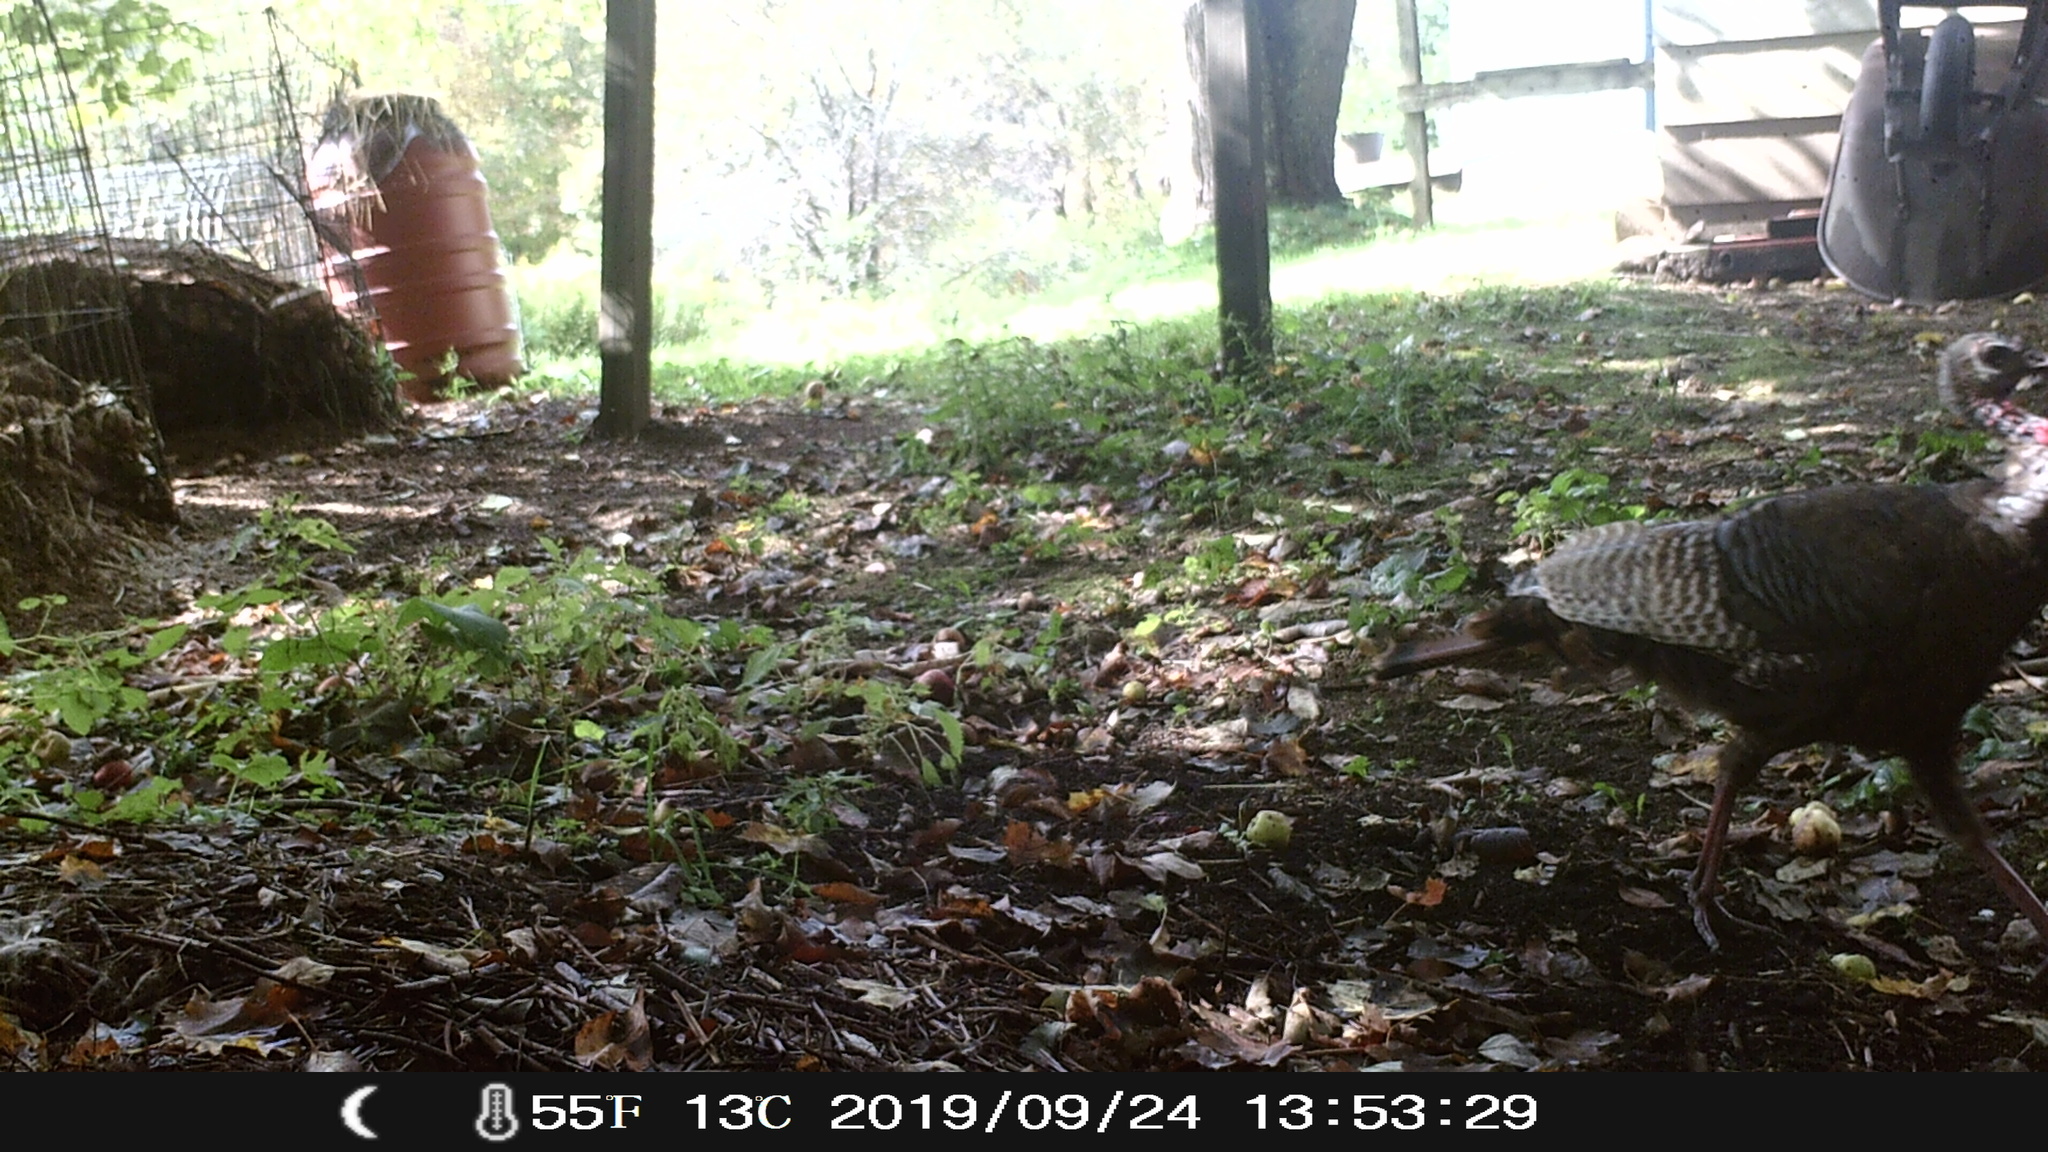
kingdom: Animalia
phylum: Chordata
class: Aves
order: Galliformes
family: Phasianidae
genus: Meleagris
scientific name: Meleagris gallopavo
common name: Wild turkey
